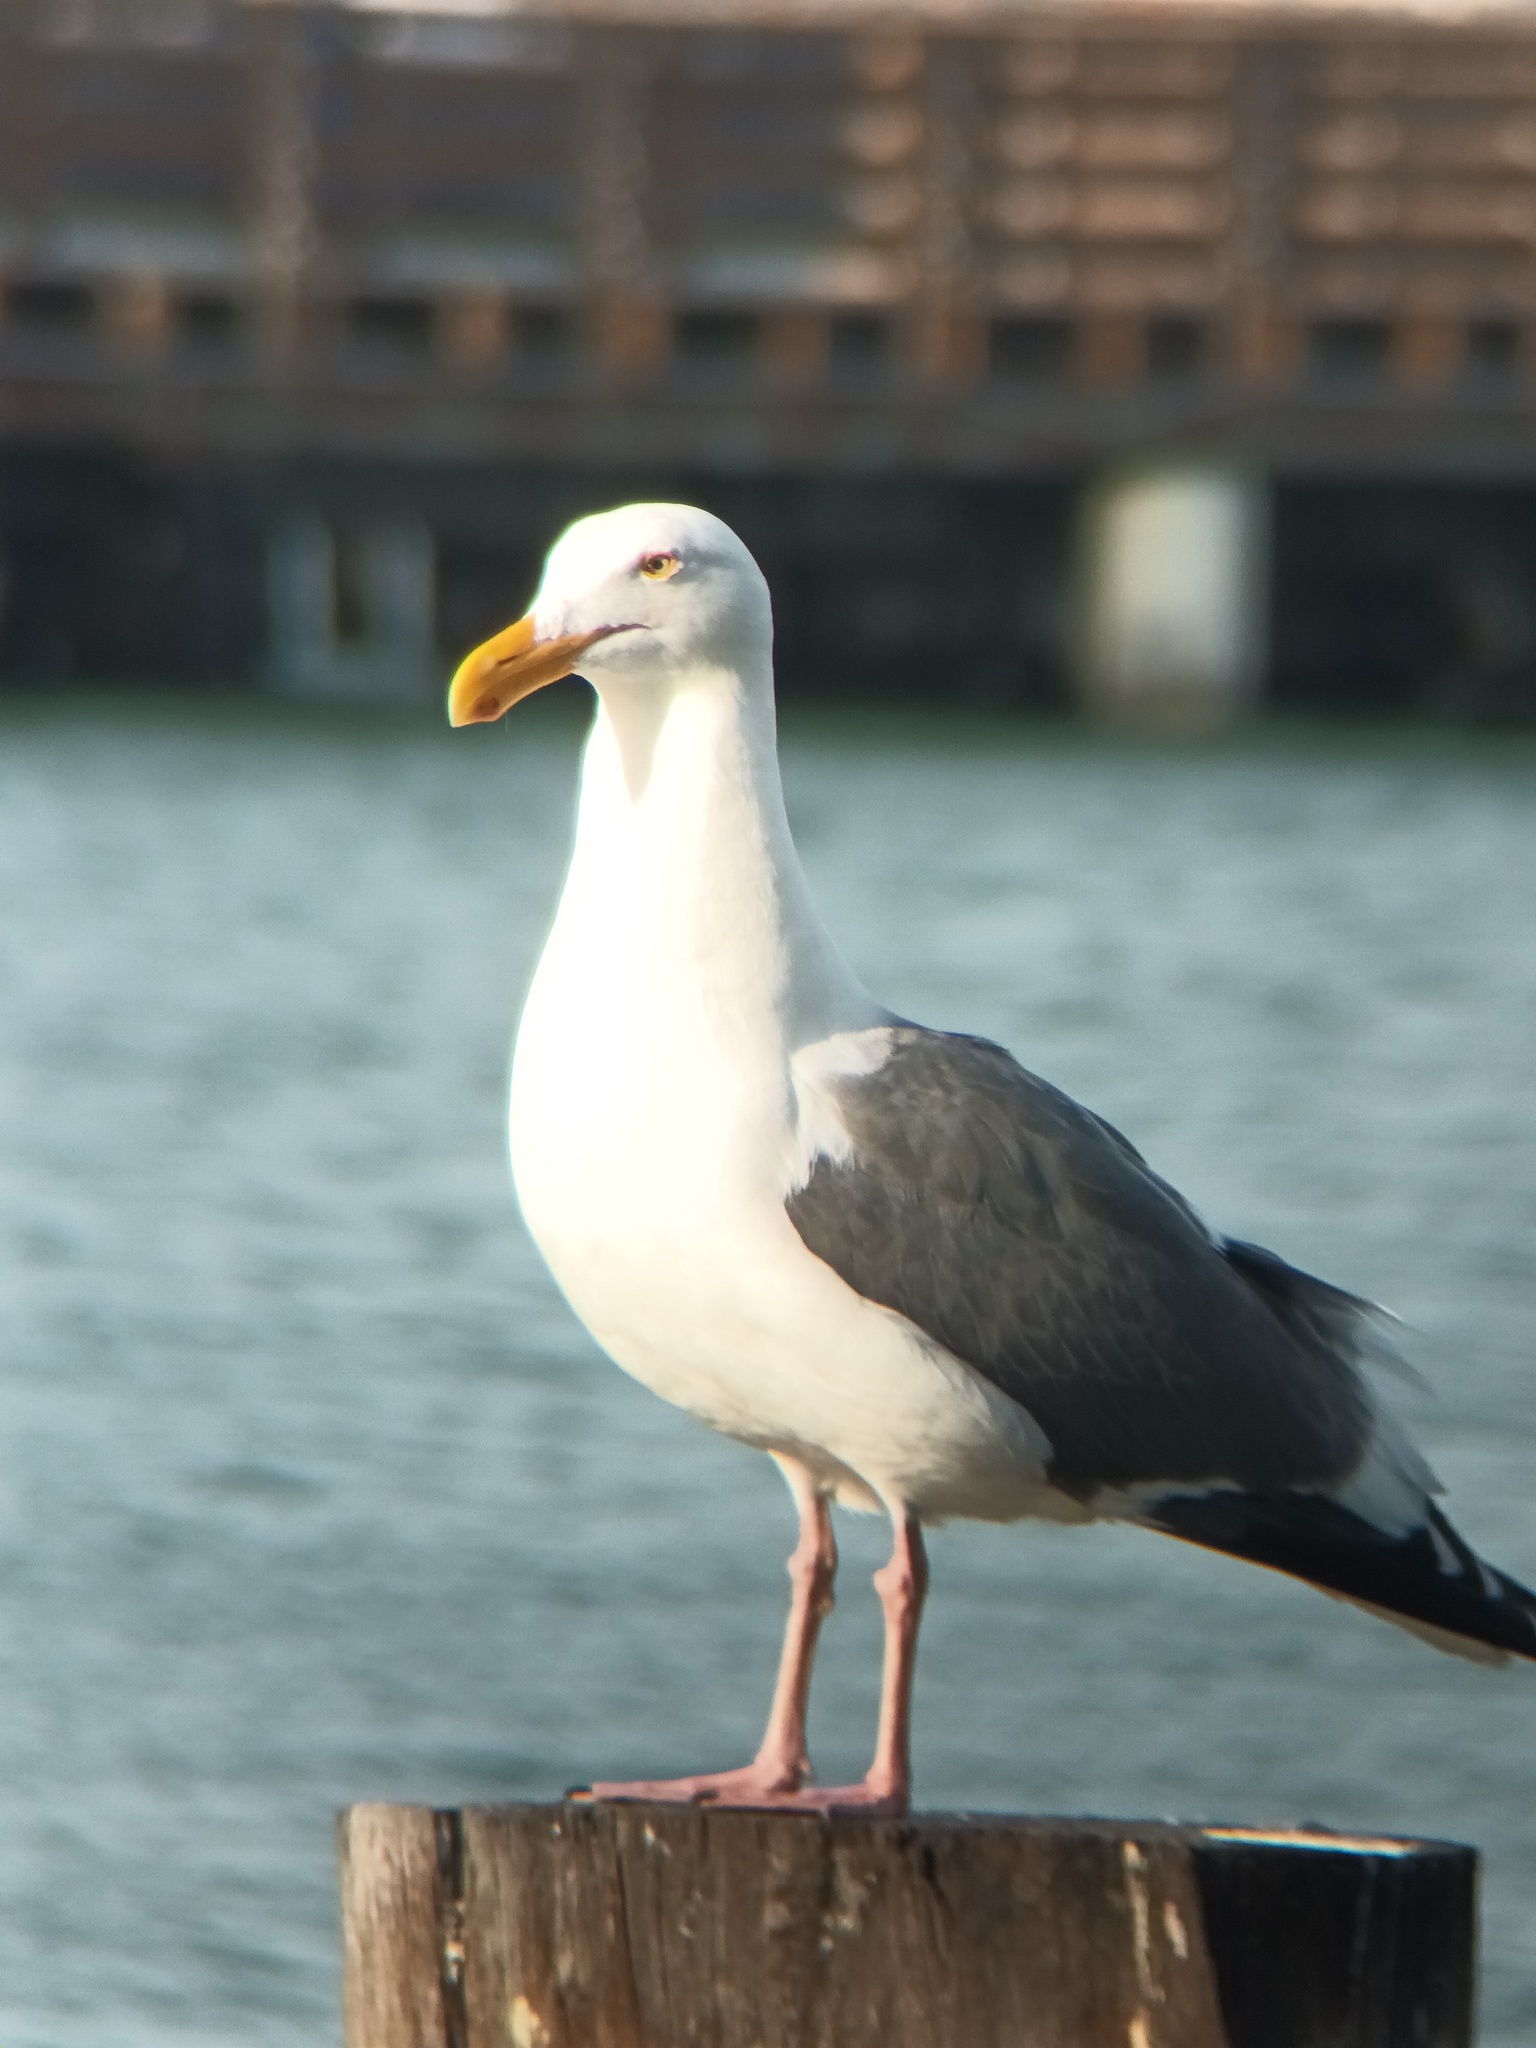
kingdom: Animalia
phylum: Chordata
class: Aves
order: Charadriiformes
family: Laridae
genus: Larus
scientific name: Larus occidentalis
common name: Western gull
